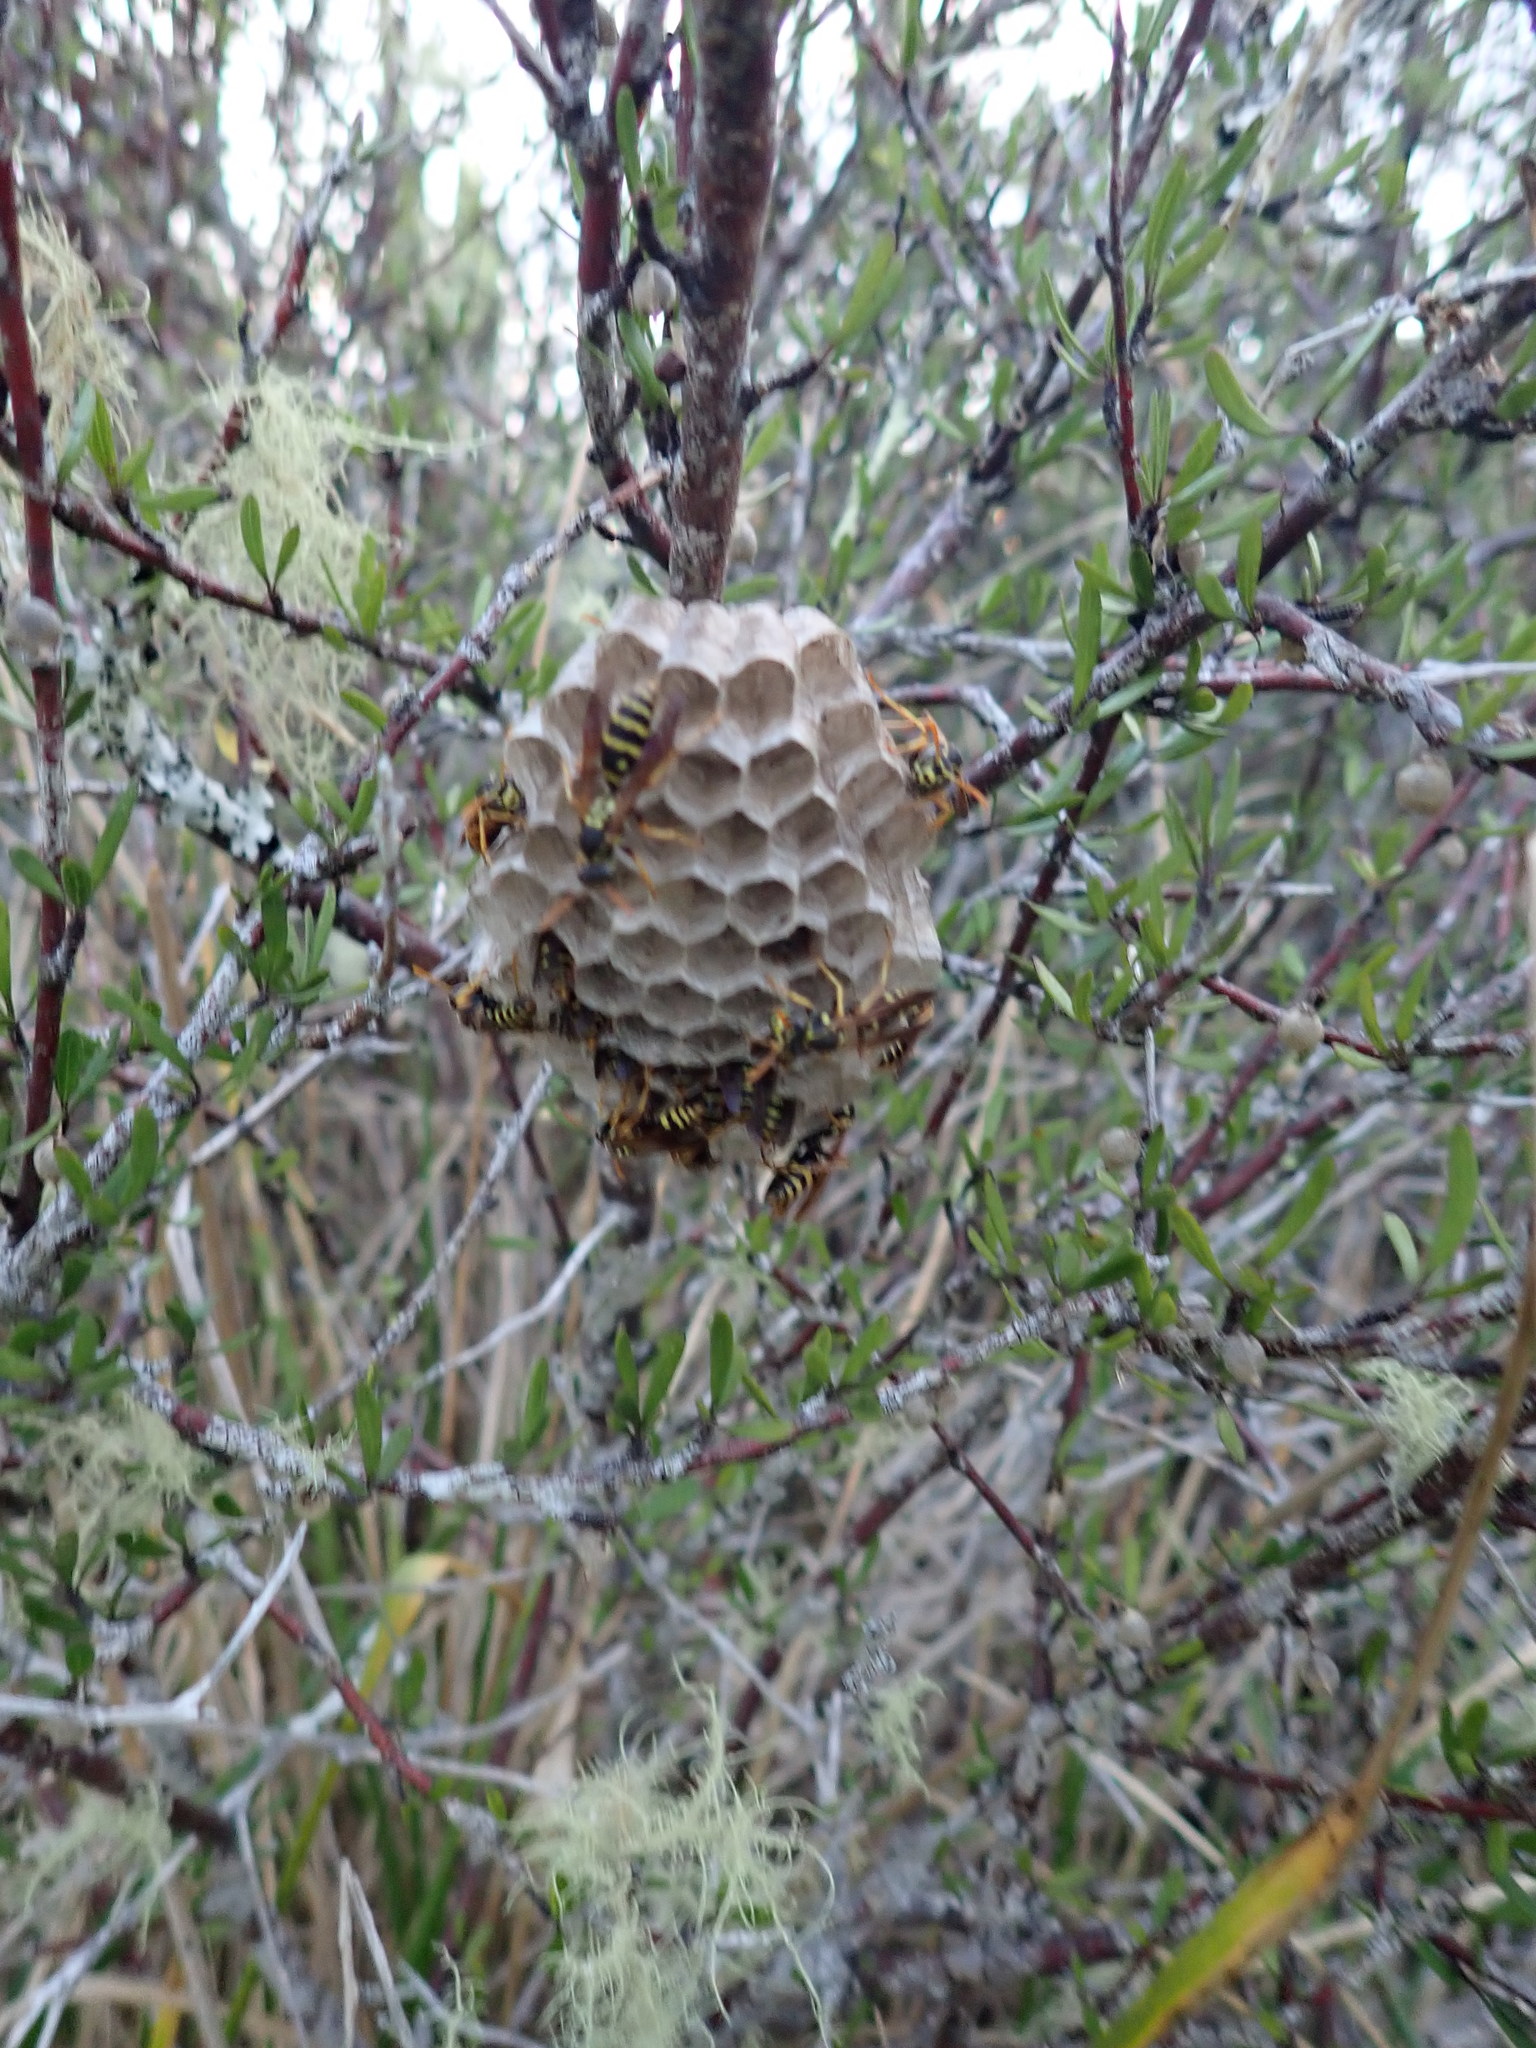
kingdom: Animalia
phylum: Arthropoda
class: Insecta
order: Hymenoptera
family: Eumenidae
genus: Polistes
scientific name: Polistes chinensis
